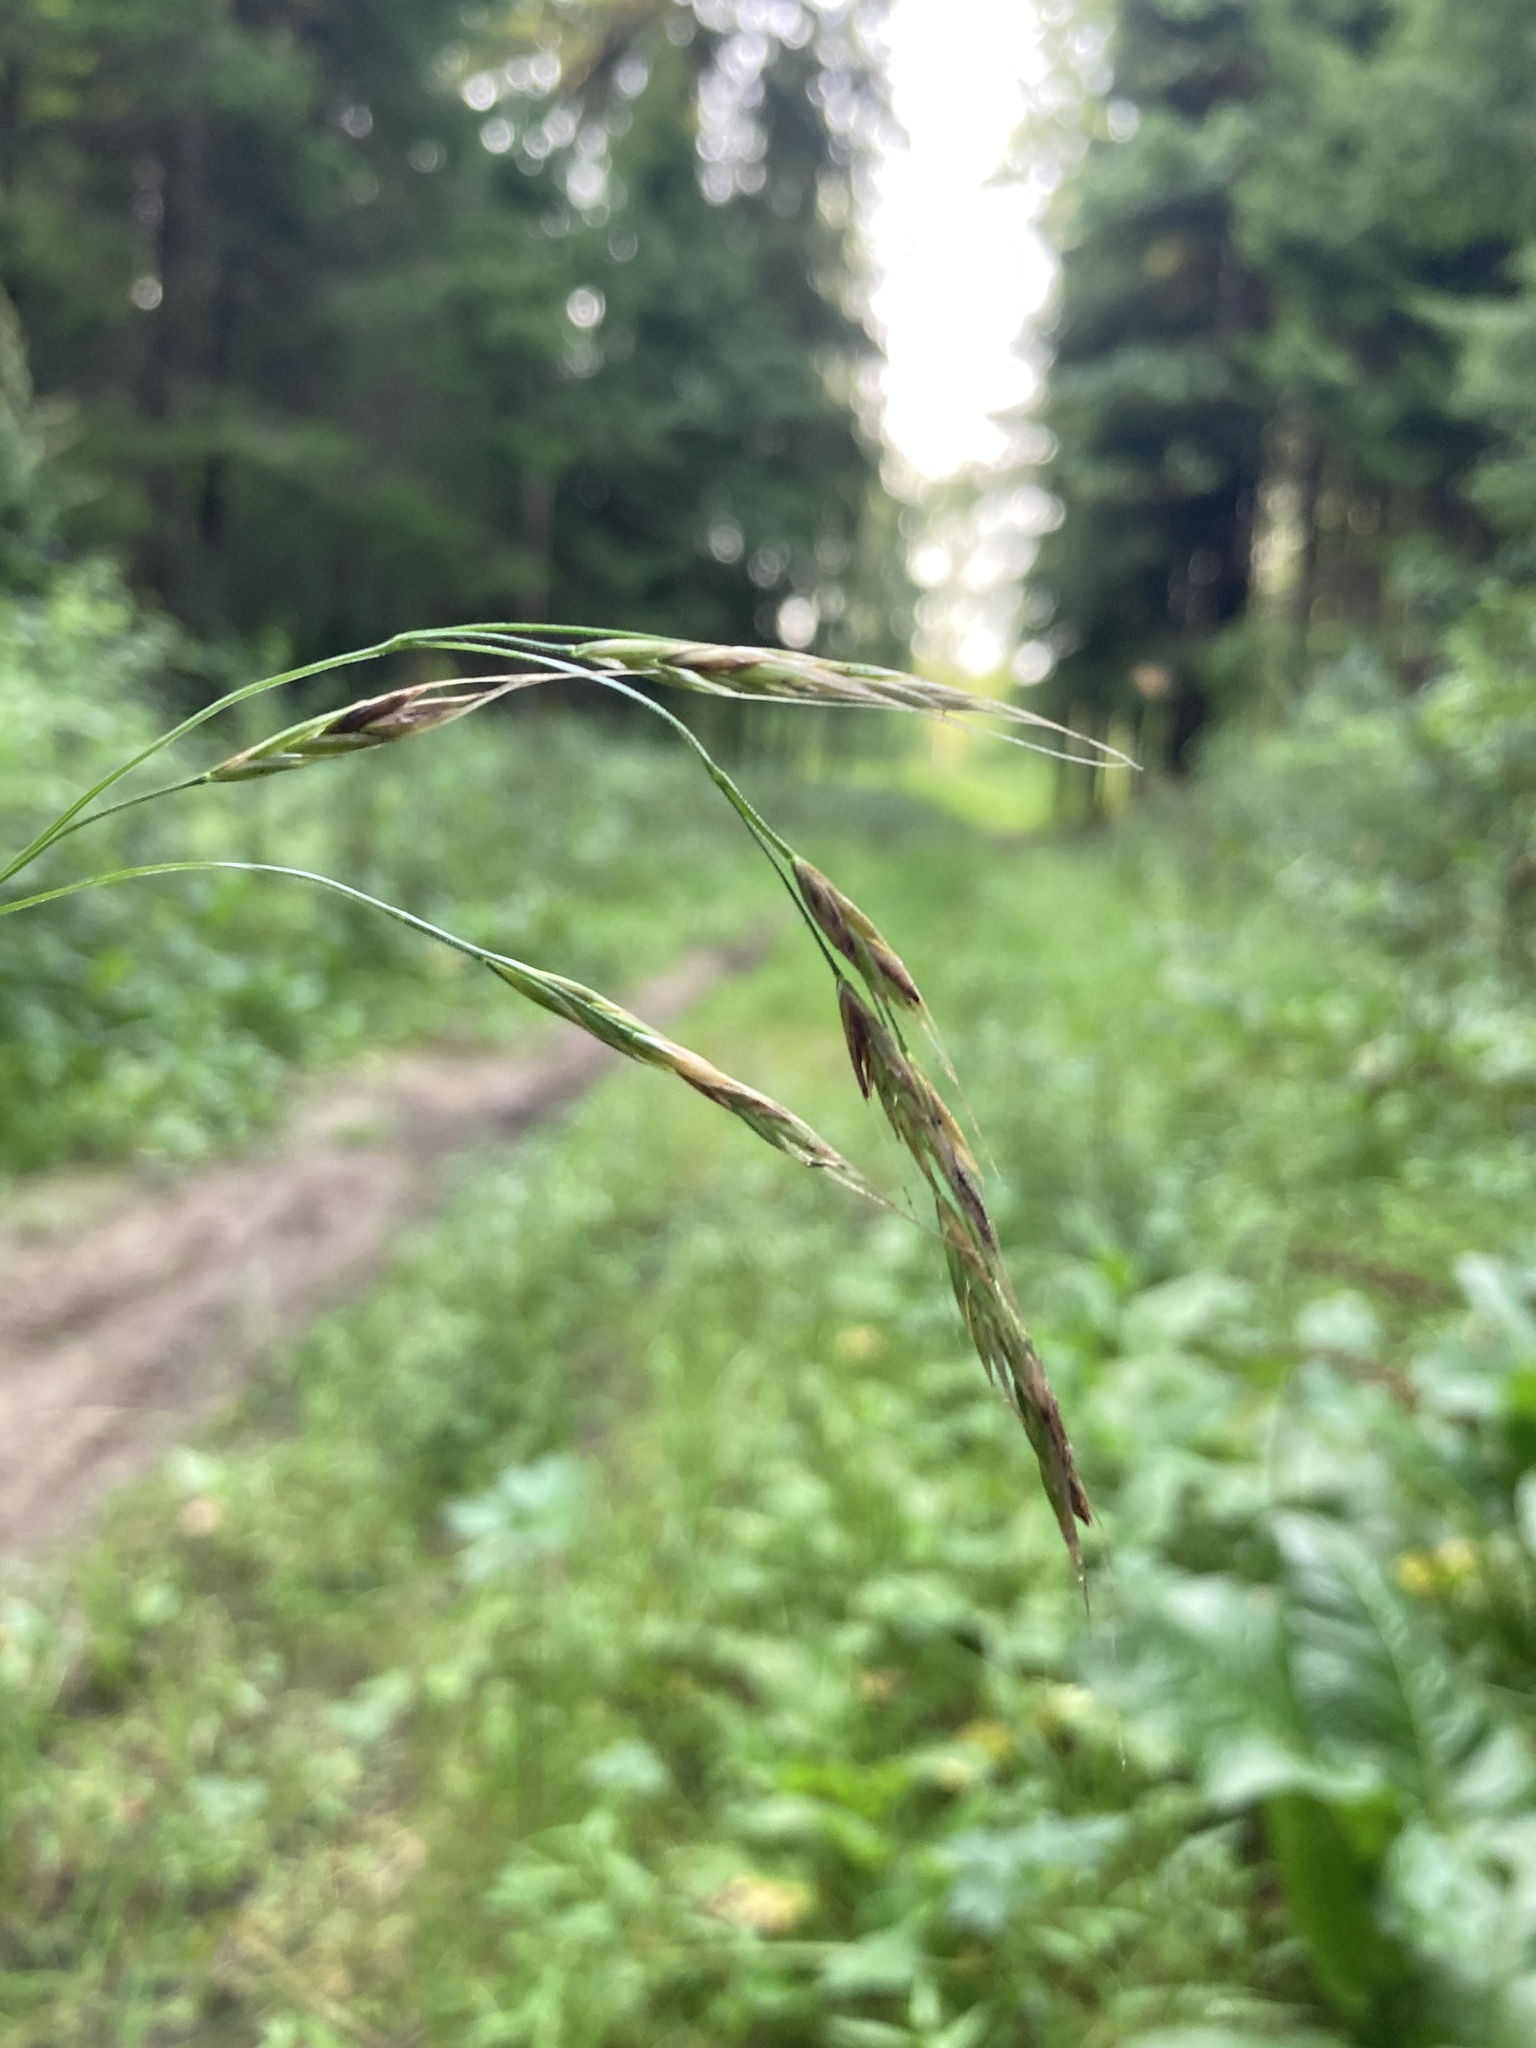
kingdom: Plantae
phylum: Tracheophyta
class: Liliopsida
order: Poales
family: Poaceae
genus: Lolium
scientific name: Lolium giganteum
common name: Giant fescue
